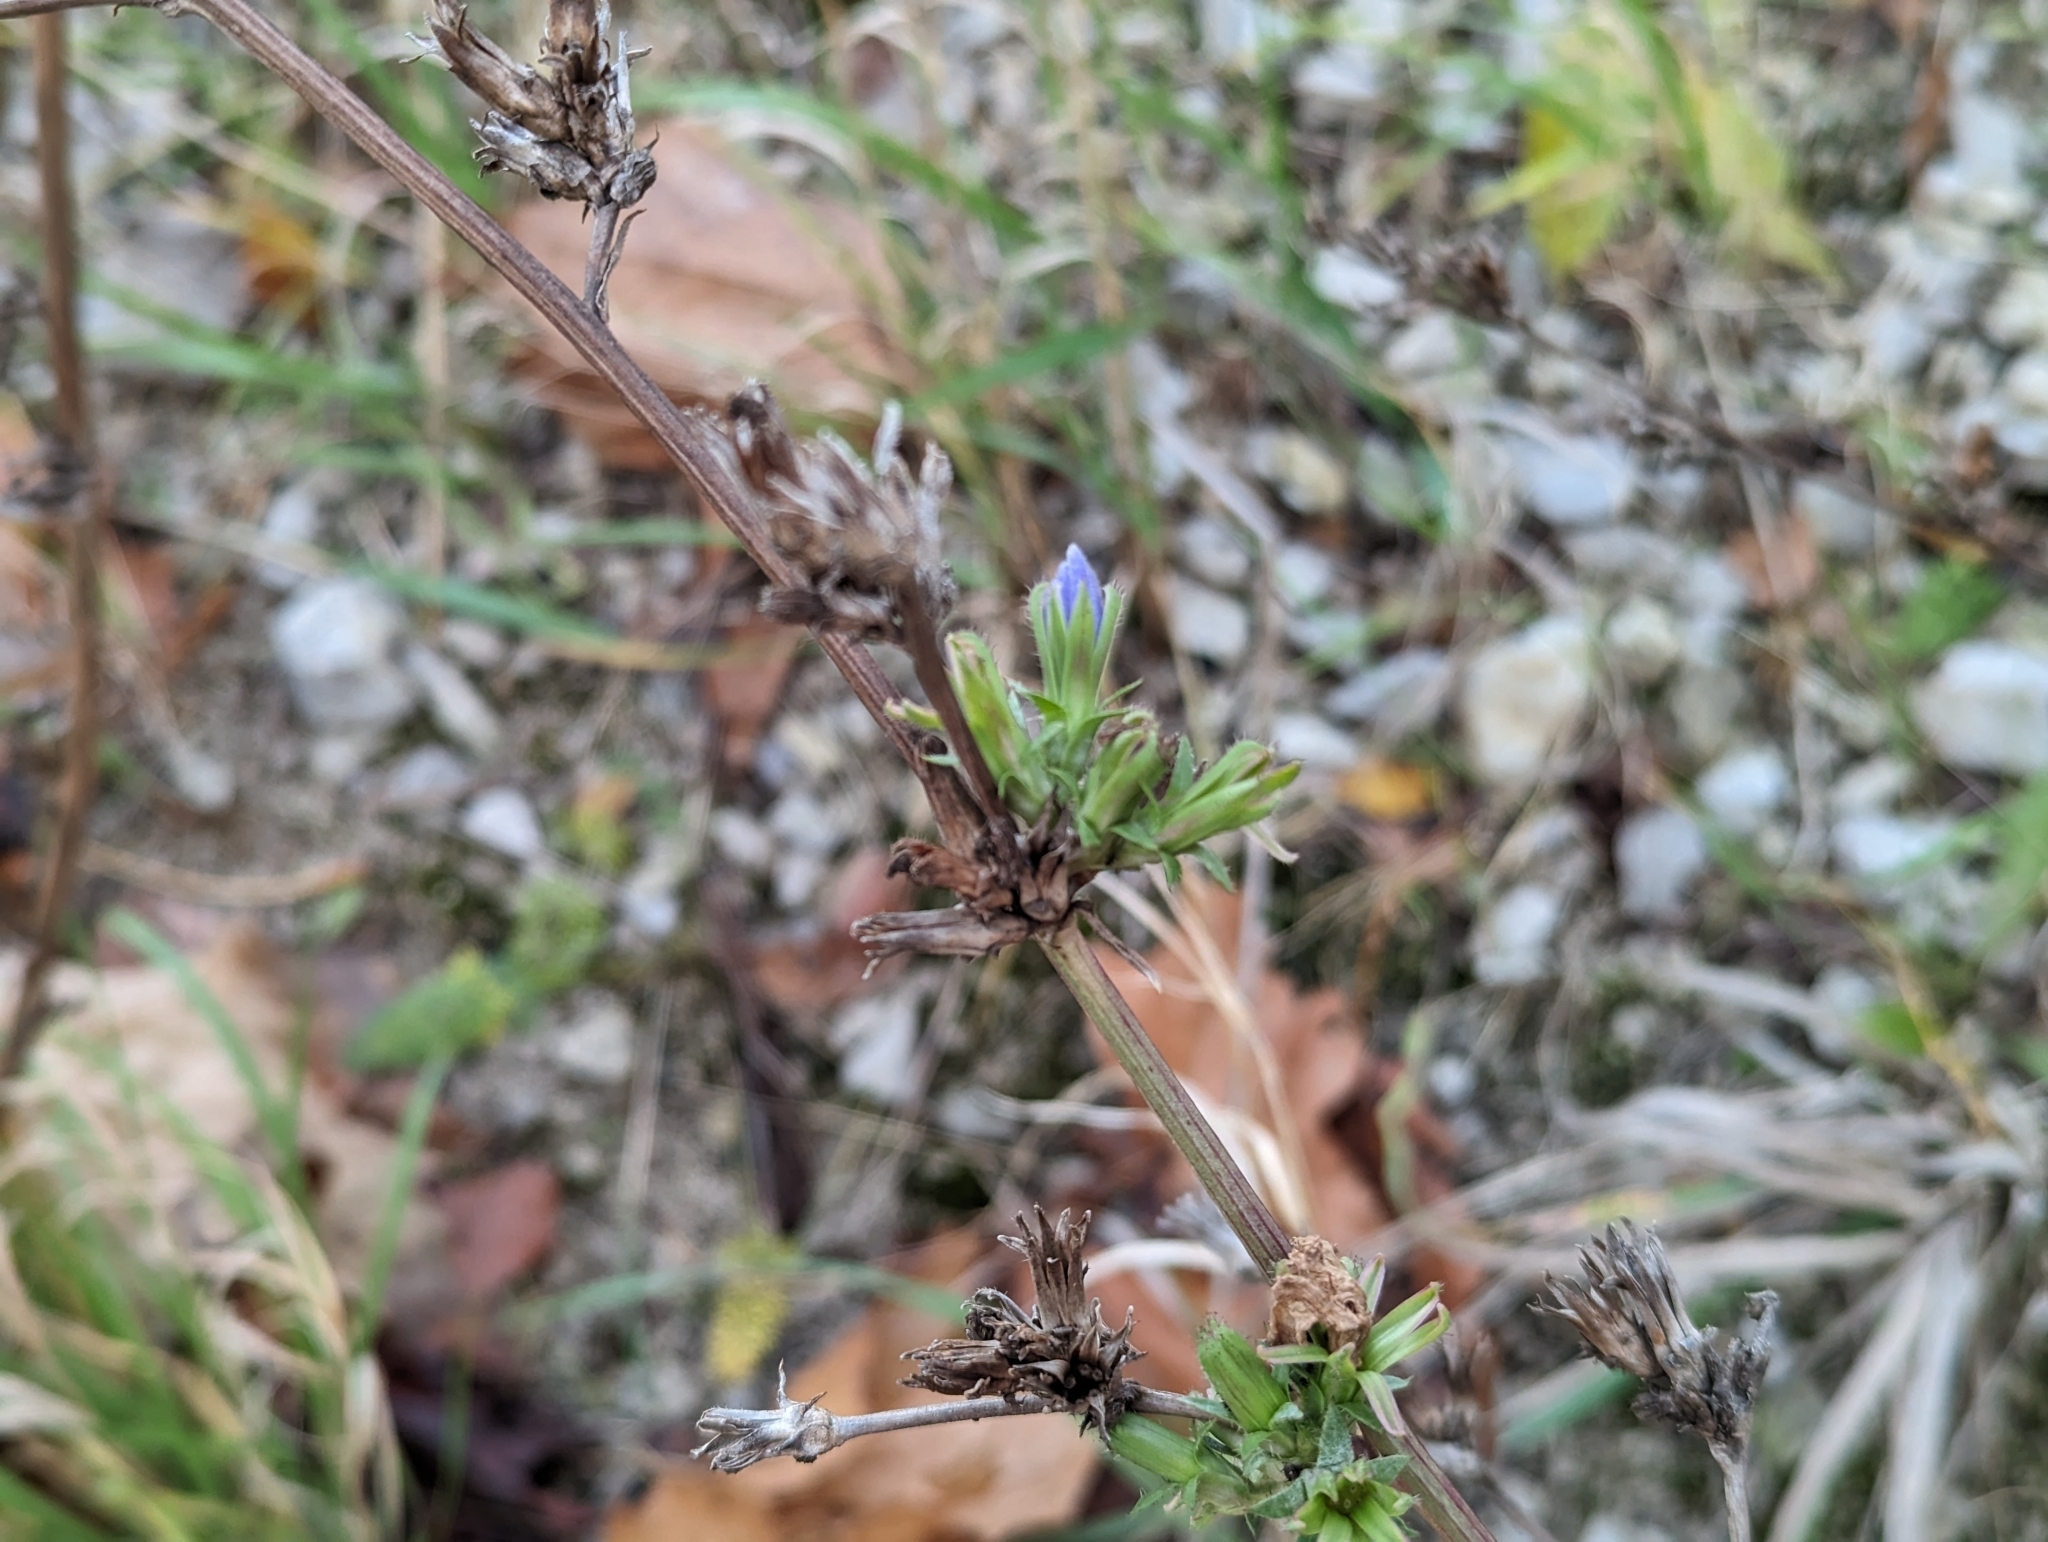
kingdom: Plantae
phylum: Tracheophyta
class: Magnoliopsida
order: Asterales
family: Asteraceae
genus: Cichorium
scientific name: Cichorium intybus
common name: Chicory
